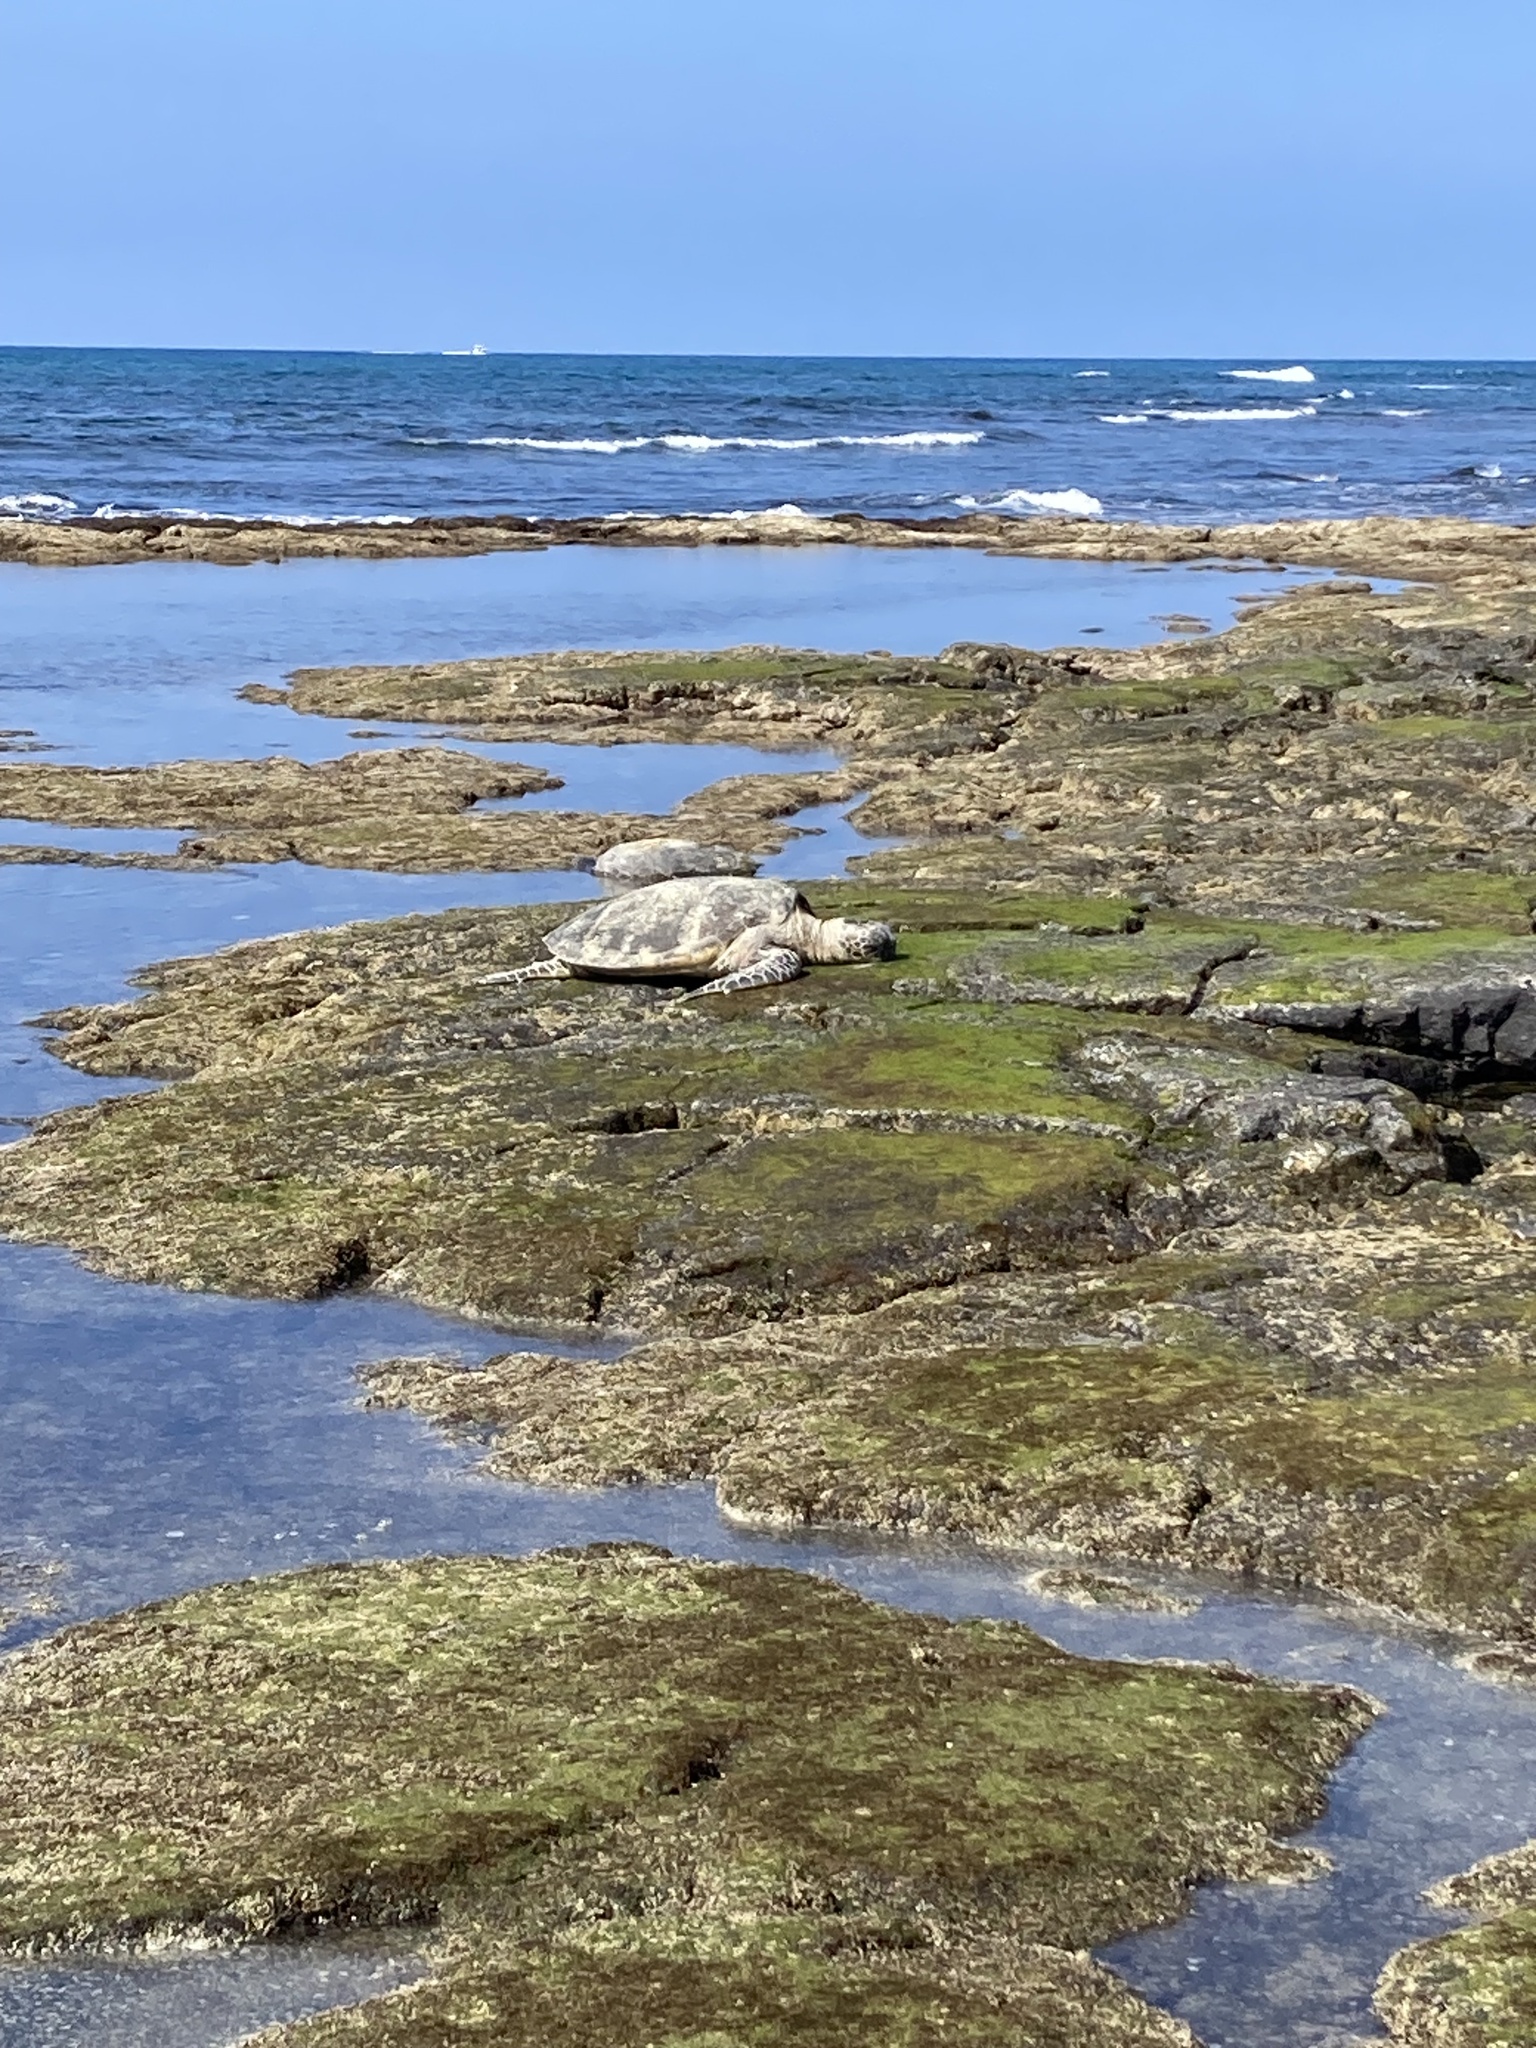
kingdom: Animalia
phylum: Chordata
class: Testudines
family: Cheloniidae
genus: Chelonia
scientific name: Chelonia mydas
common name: Green turtle
